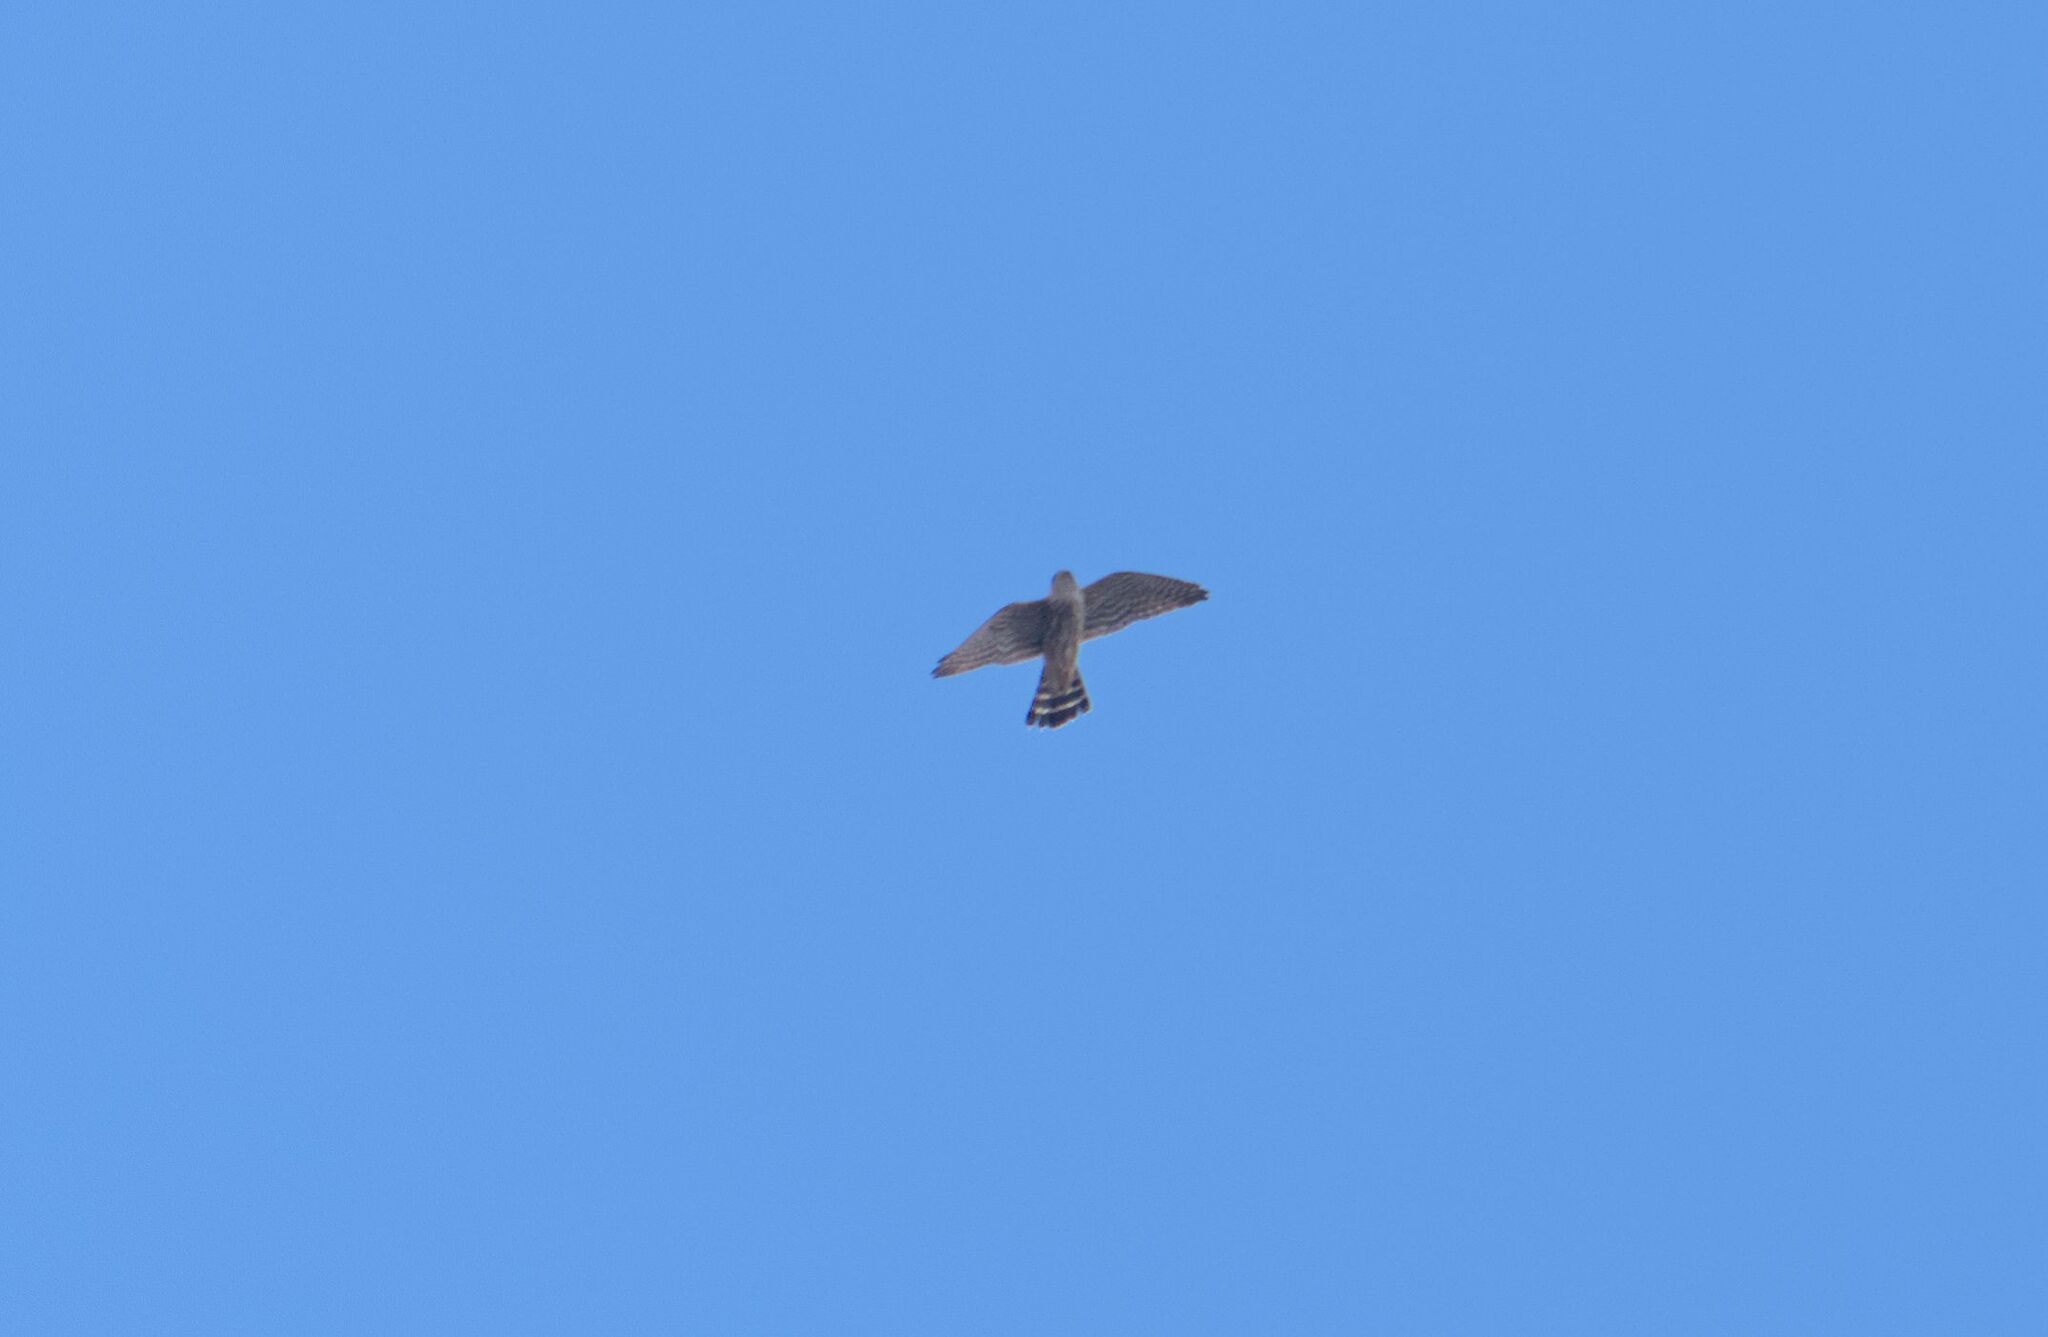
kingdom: Animalia
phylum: Chordata
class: Aves
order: Falconiformes
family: Falconidae
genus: Falco
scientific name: Falco columbarius
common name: Merlin
